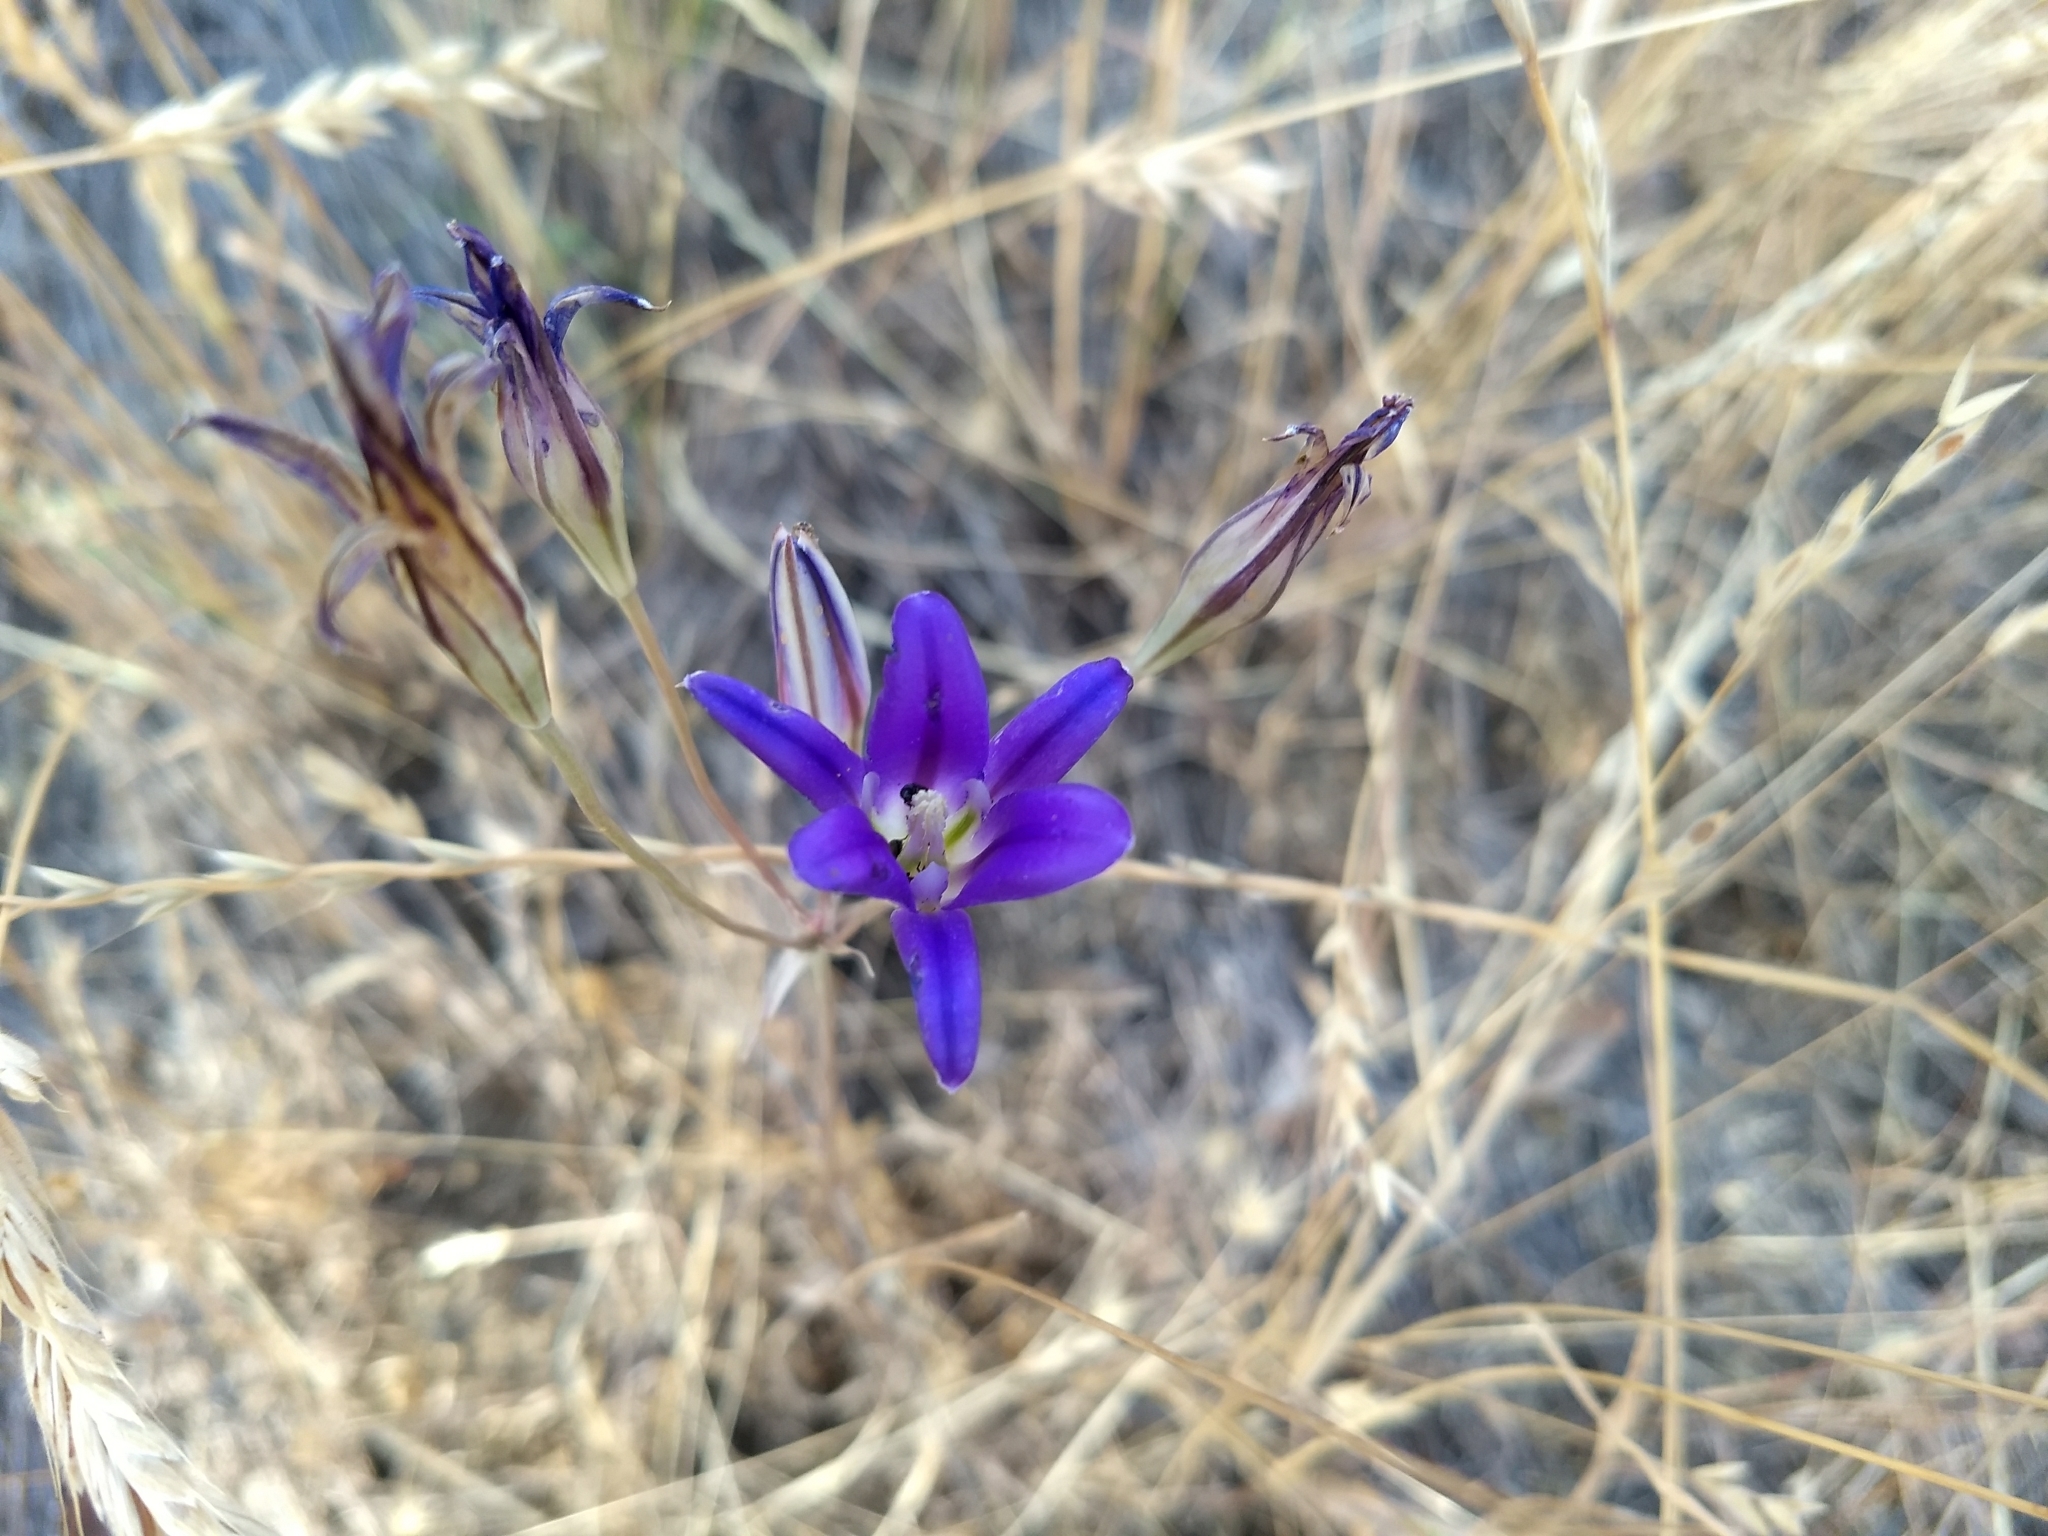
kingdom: Plantae
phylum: Tracheophyta
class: Liliopsida
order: Asparagales
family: Asparagaceae
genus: Brodiaea
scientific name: Brodiaea elegans
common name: Elegant cluster-lily
